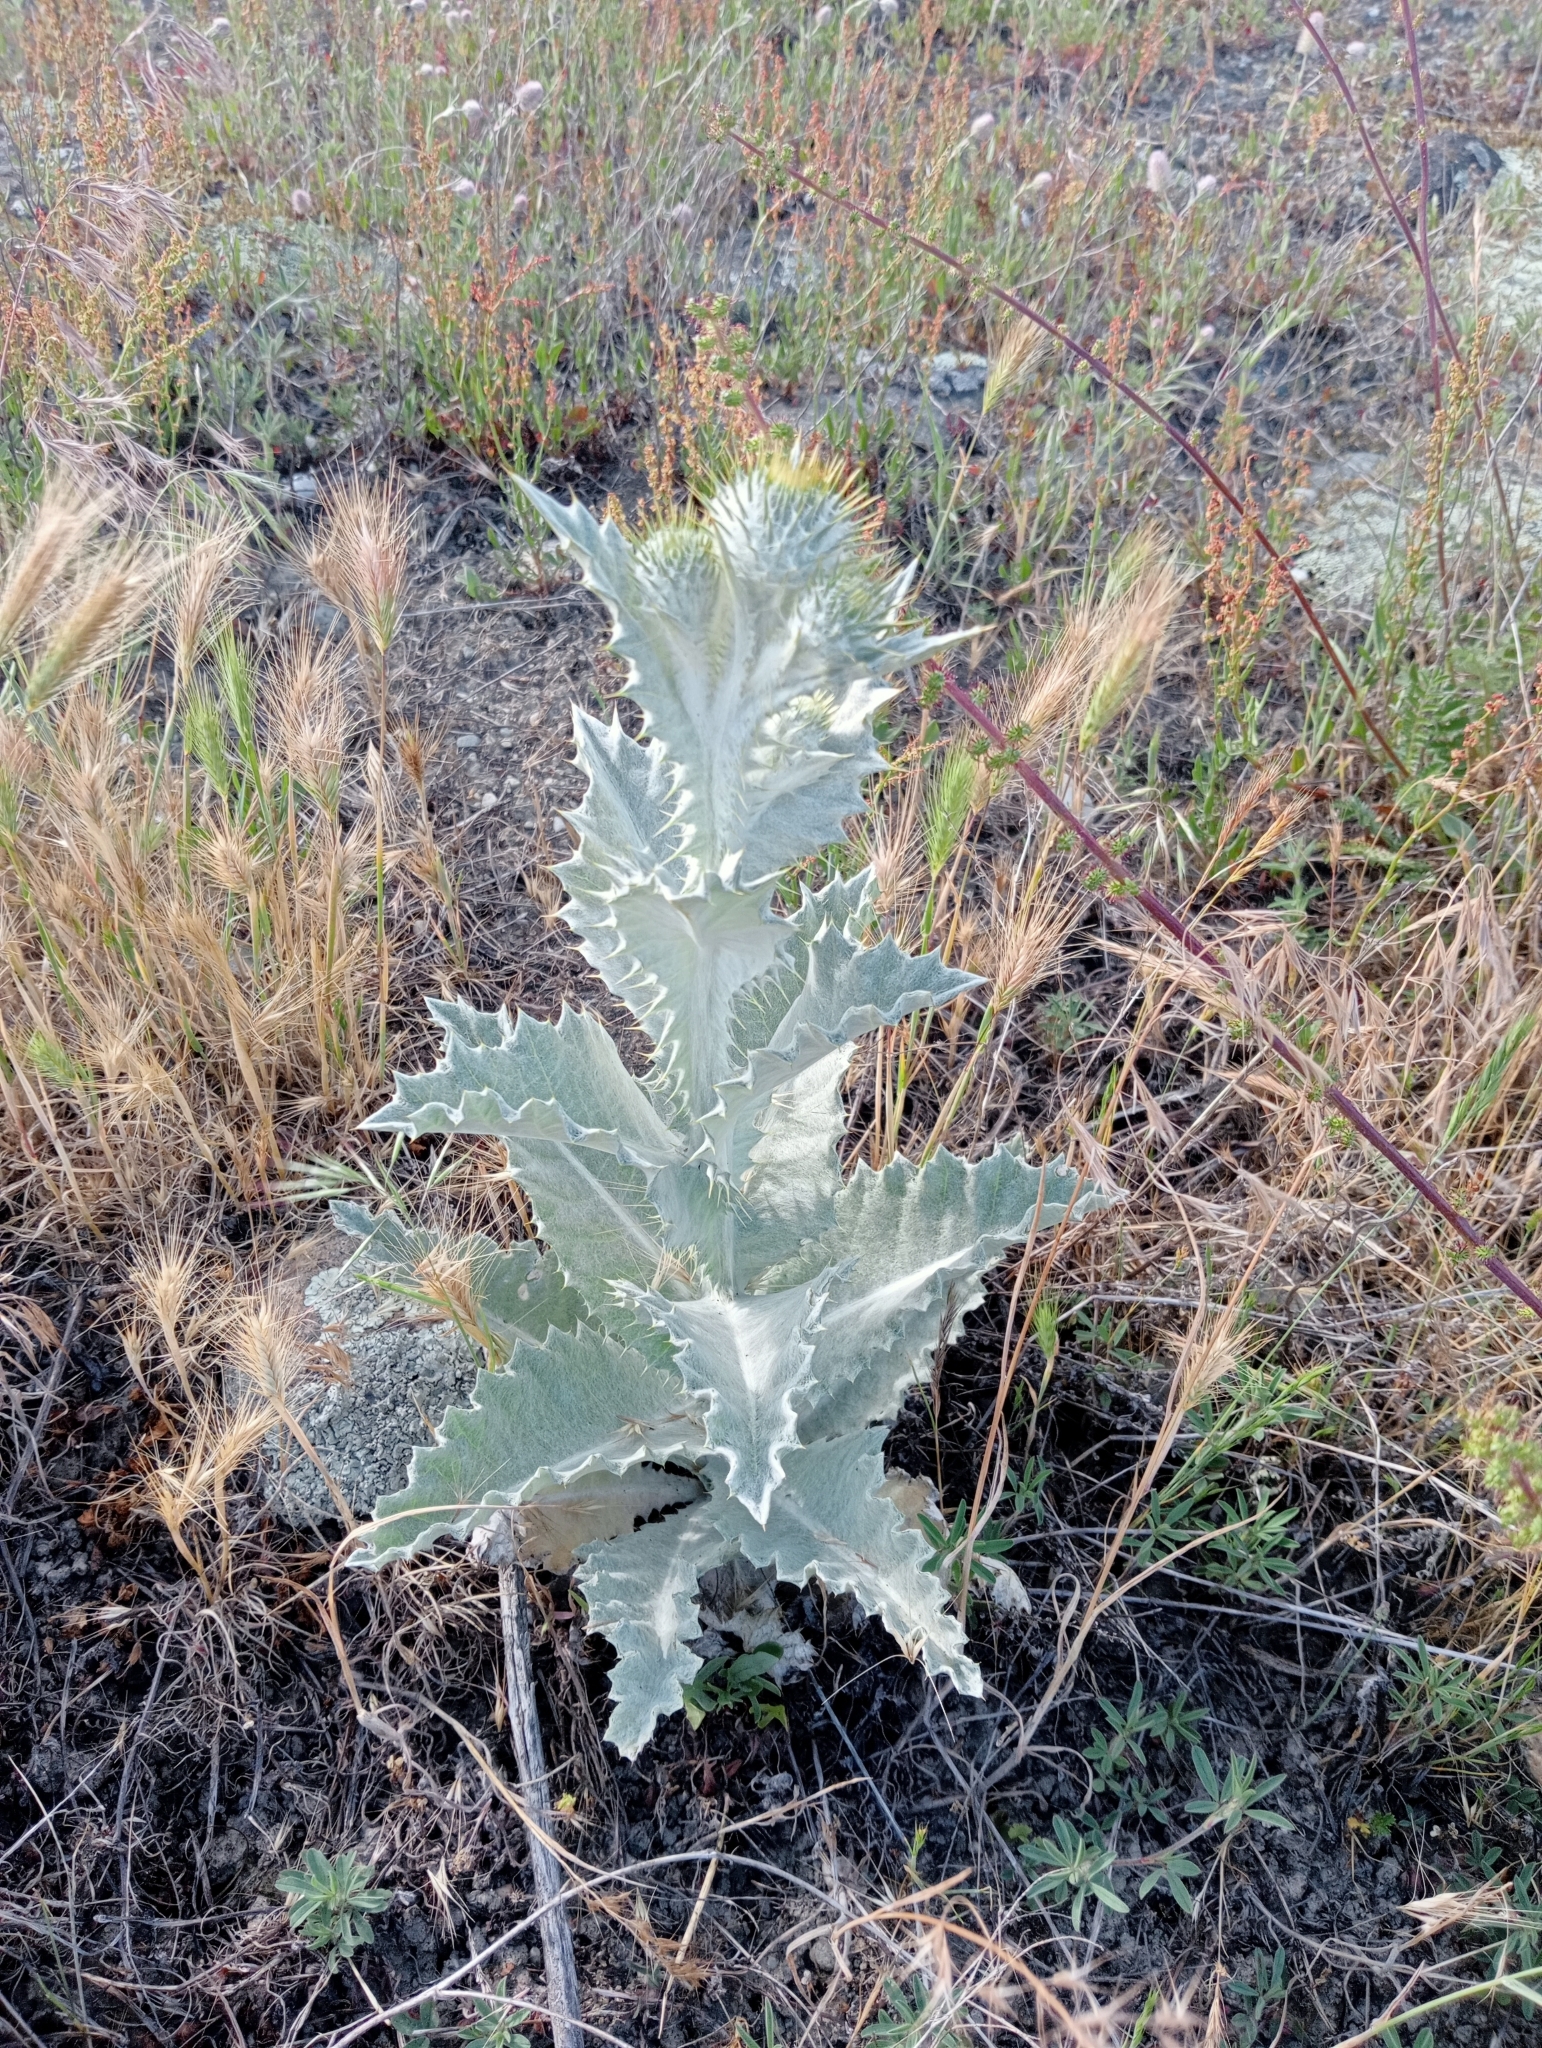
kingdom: Plantae
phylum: Tracheophyta
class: Magnoliopsida
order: Asterales
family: Asteraceae
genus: Onopordum
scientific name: Onopordum acanthium
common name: Scotch thistle
